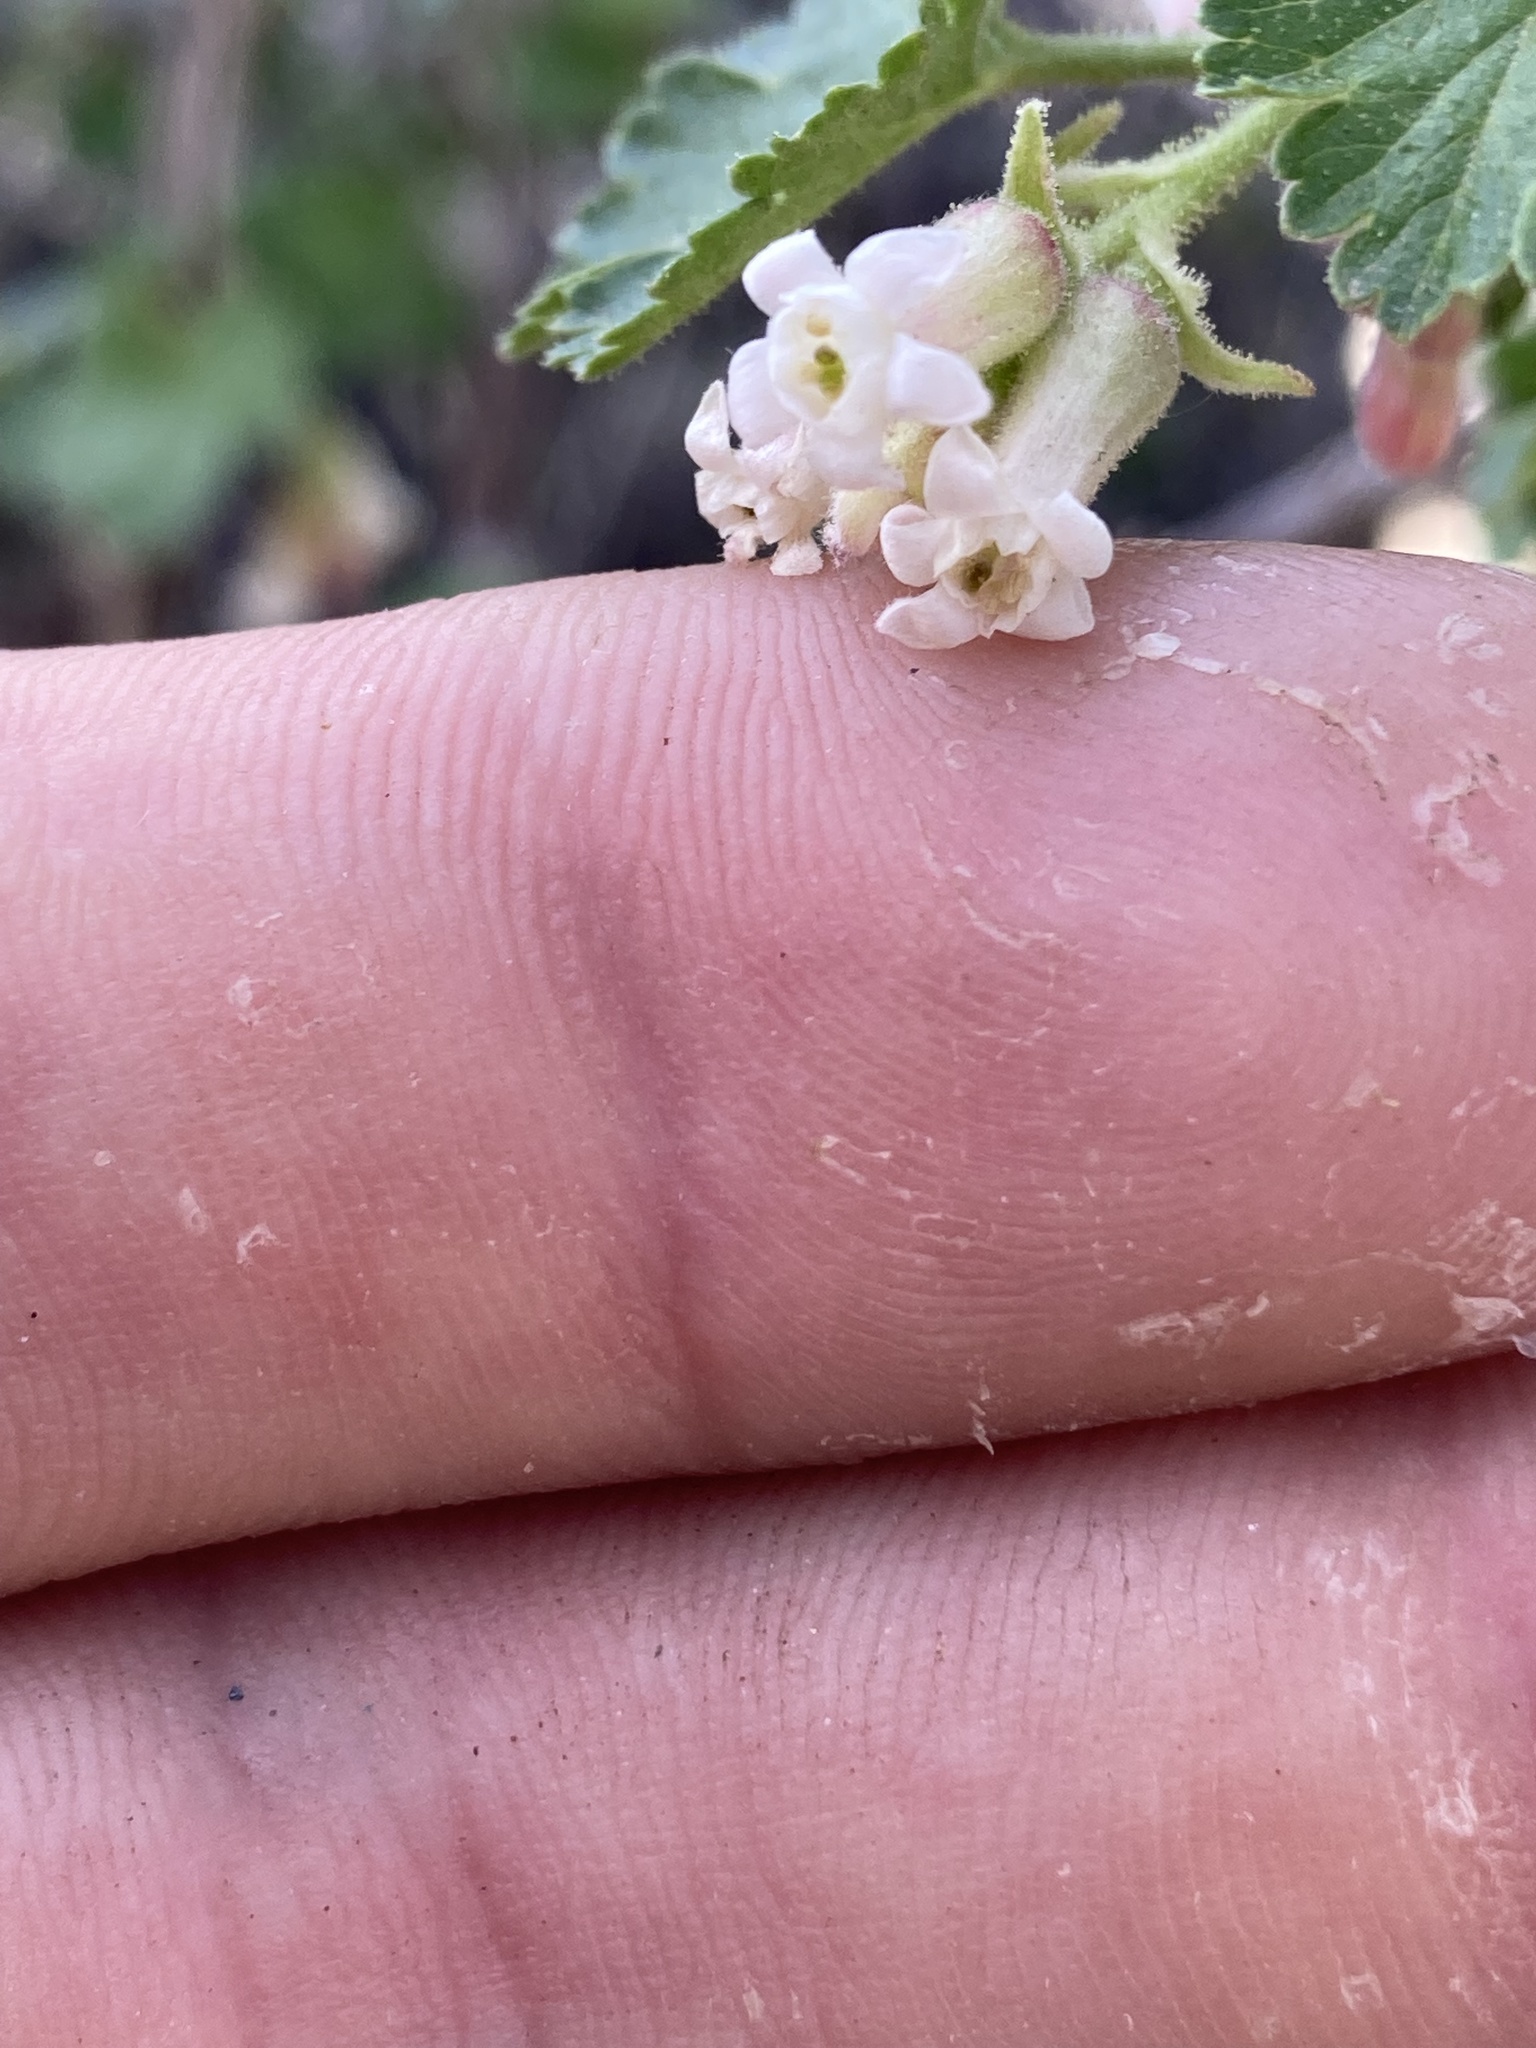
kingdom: Plantae
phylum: Tracheophyta
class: Magnoliopsida
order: Saxifragales
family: Grossulariaceae
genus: Ribes
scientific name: Ribes cereum
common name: Wax currant
